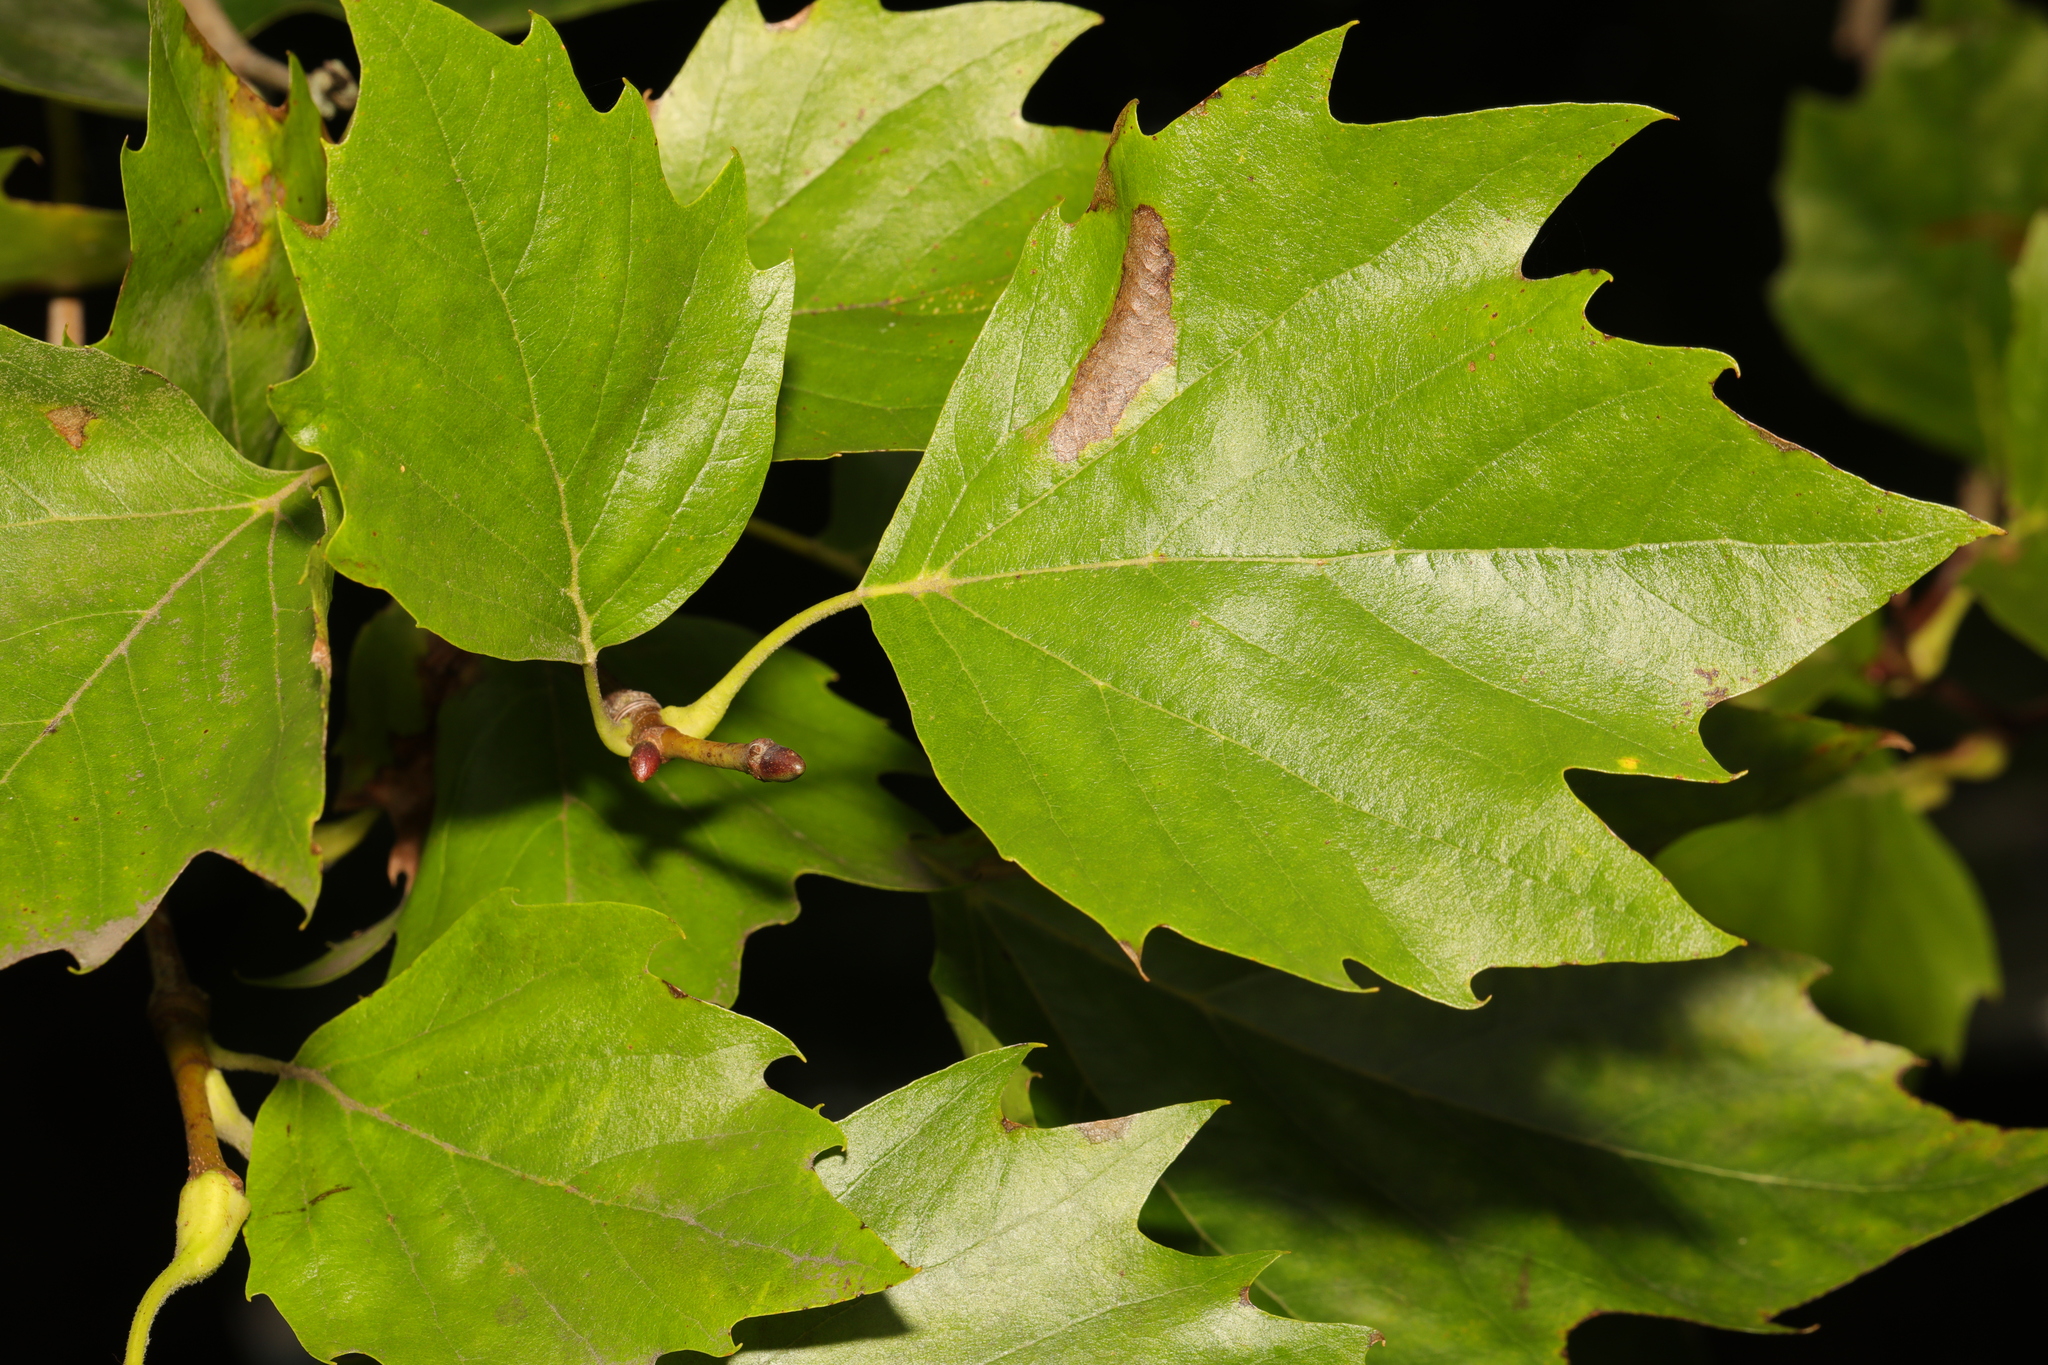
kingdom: Plantae
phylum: Tracheophyta
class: Magnoliopsida
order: Proteales
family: Platanaceae
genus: Platanus
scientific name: Platanus hispanica
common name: London plane
